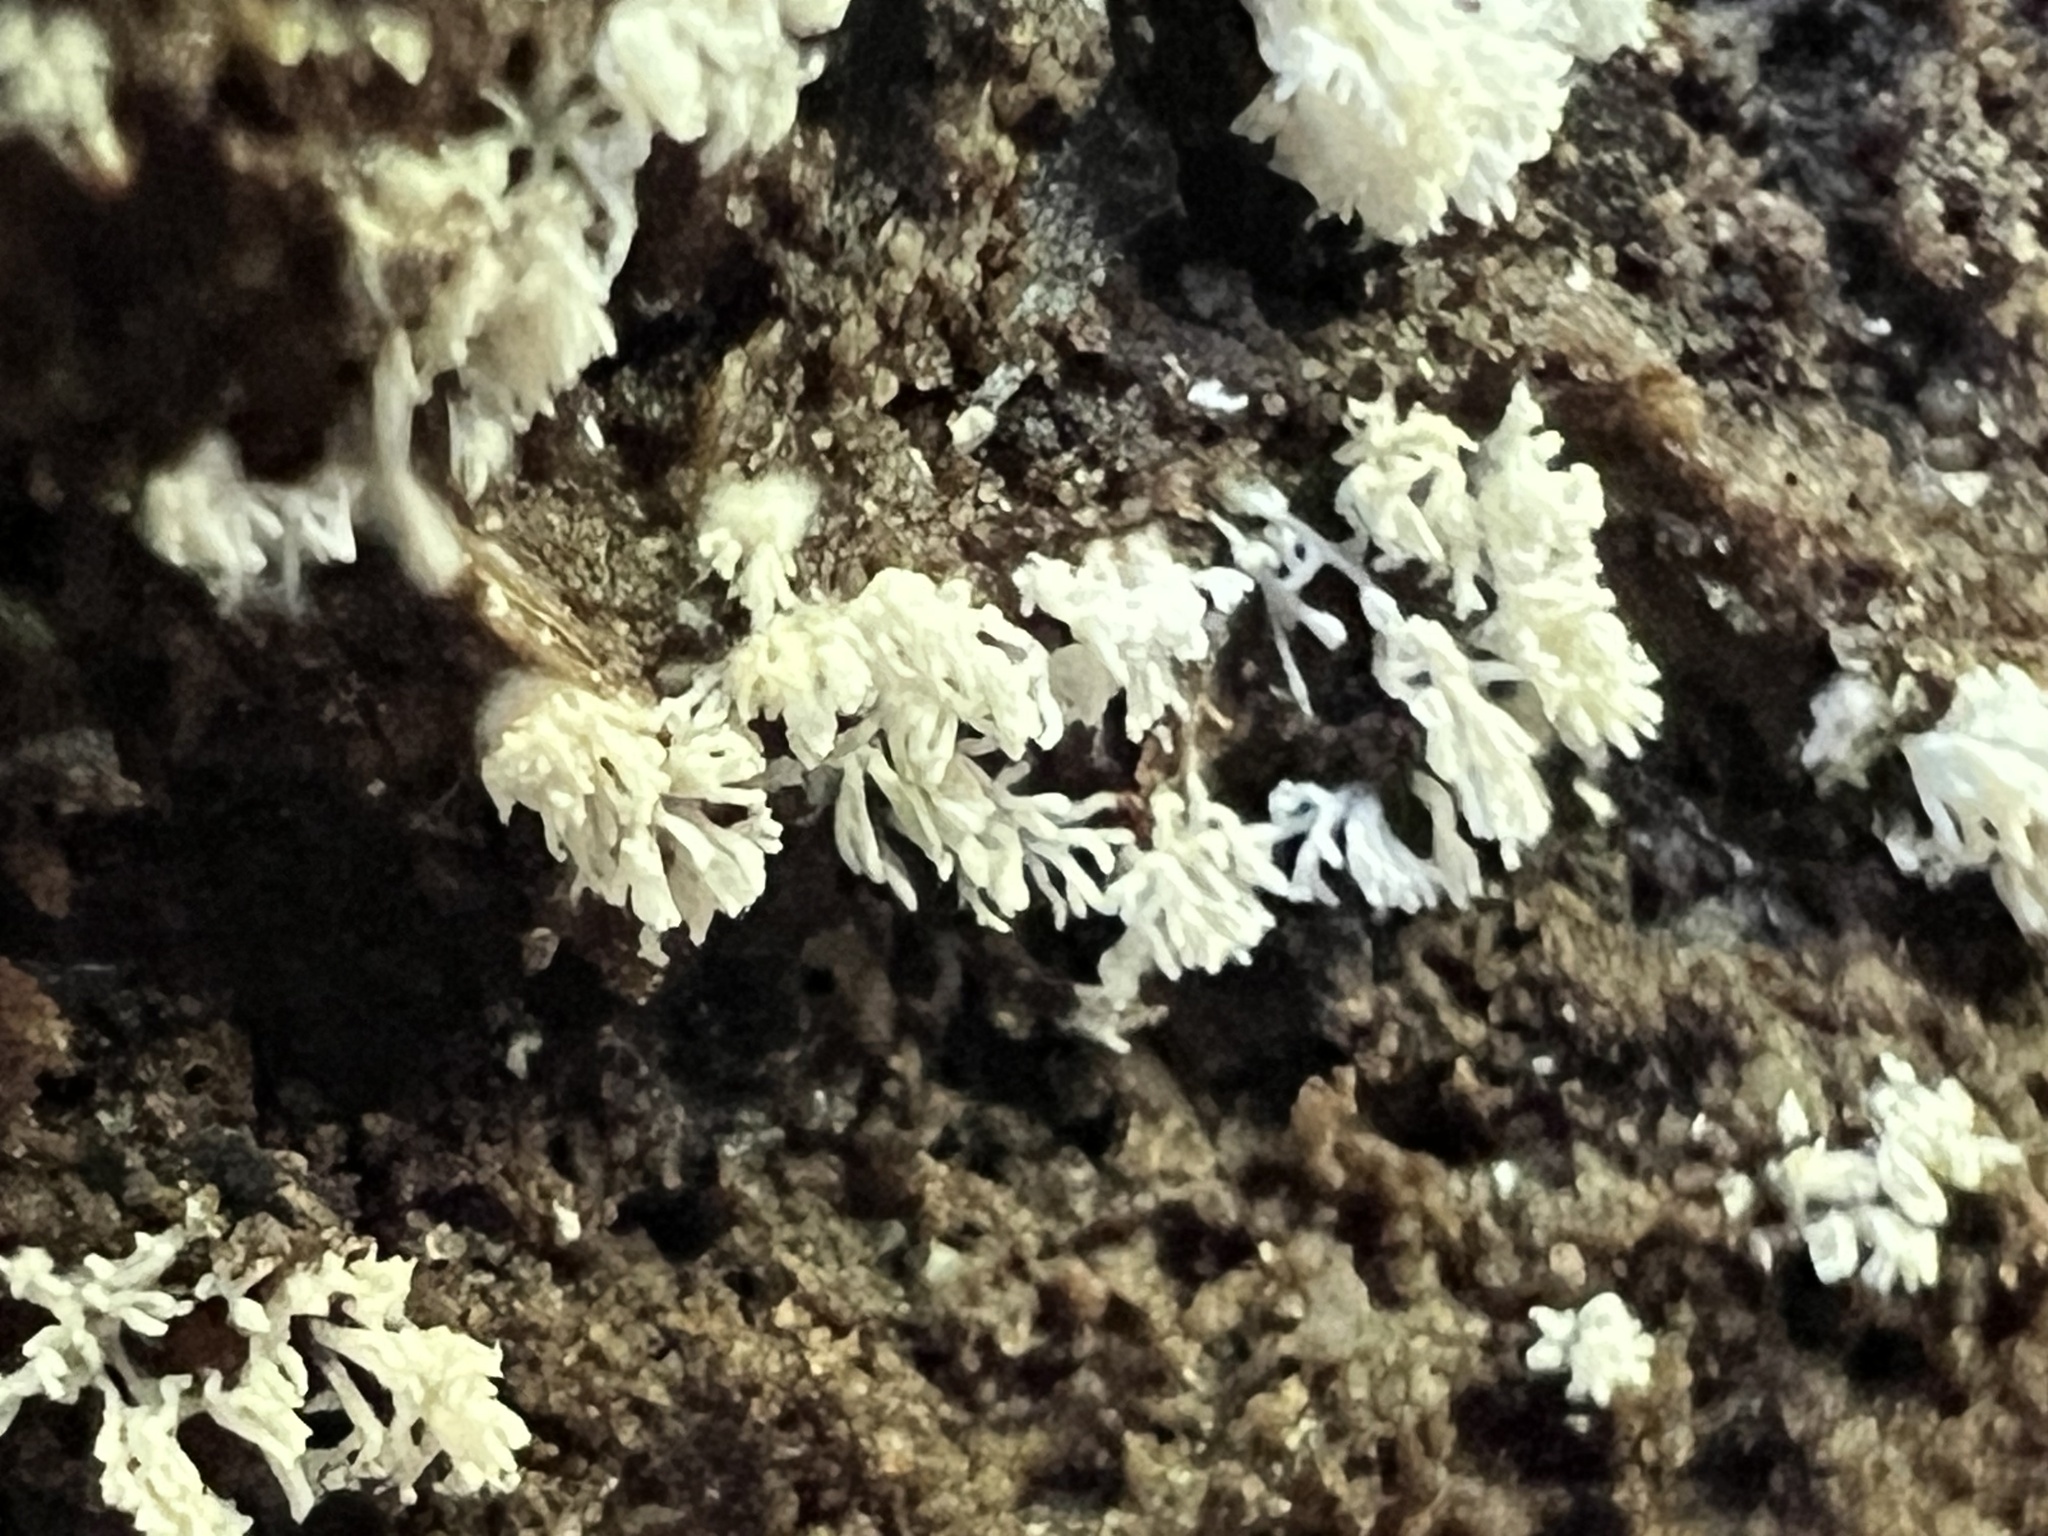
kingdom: Protozoa
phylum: Mycetozoa
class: Protosteliomycetes
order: Ceratiomyxales
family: Ceratiomyxaceae
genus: Ceratiomyxa
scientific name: Ceratiomyxa fruticulosa
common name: Honeycomb coral slime mold
